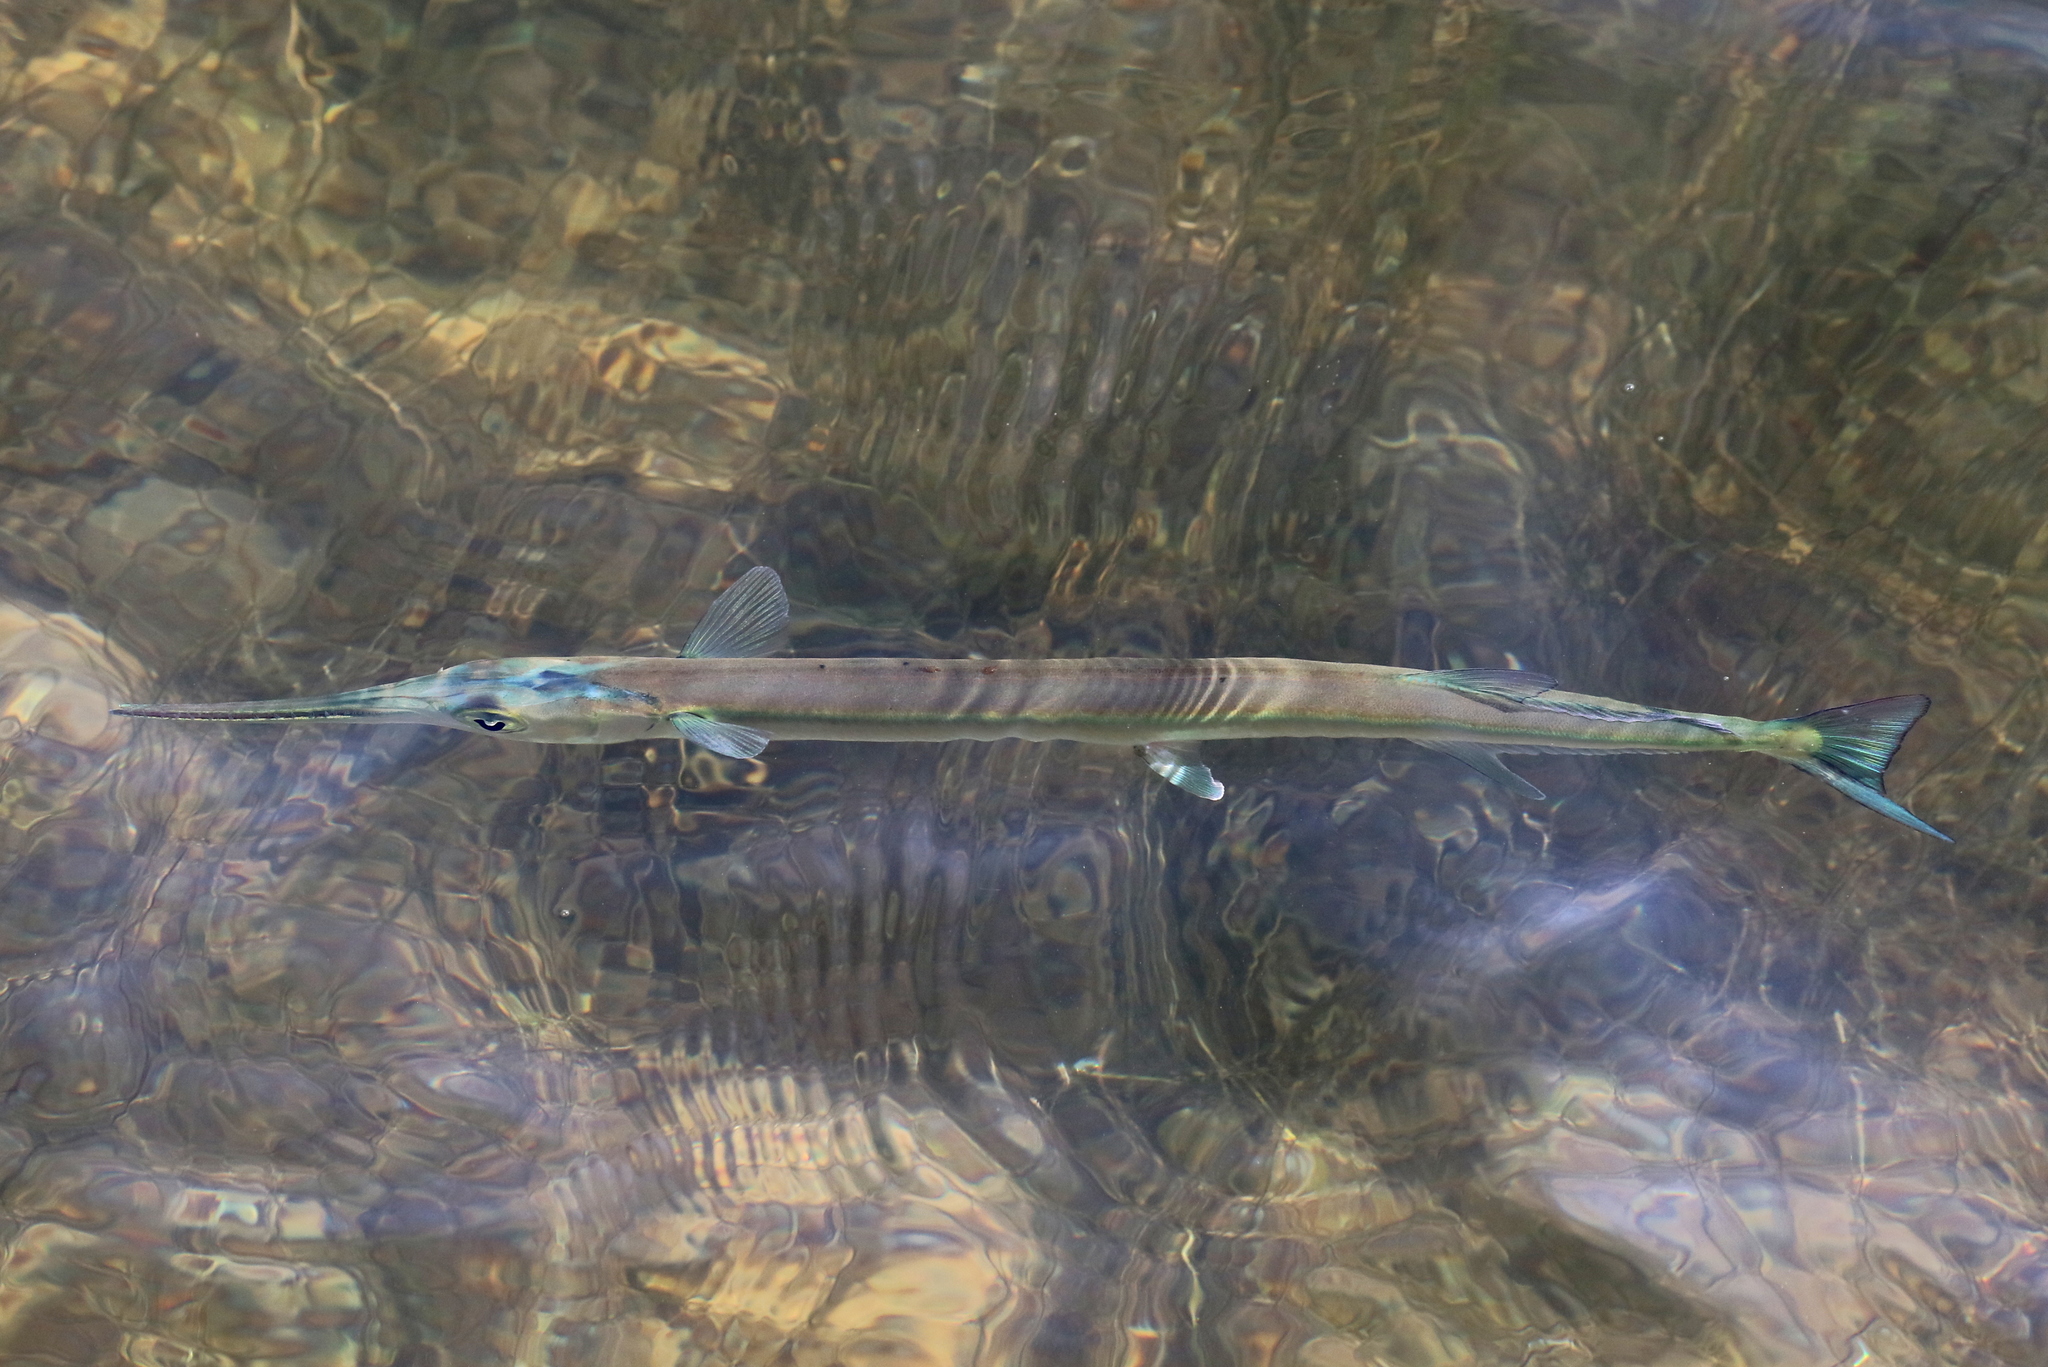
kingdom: Animalia
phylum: Chordata
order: Beloniformes
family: Belonidae
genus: Strongylura
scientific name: Strongylura marina
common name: Atlantic needlefish
